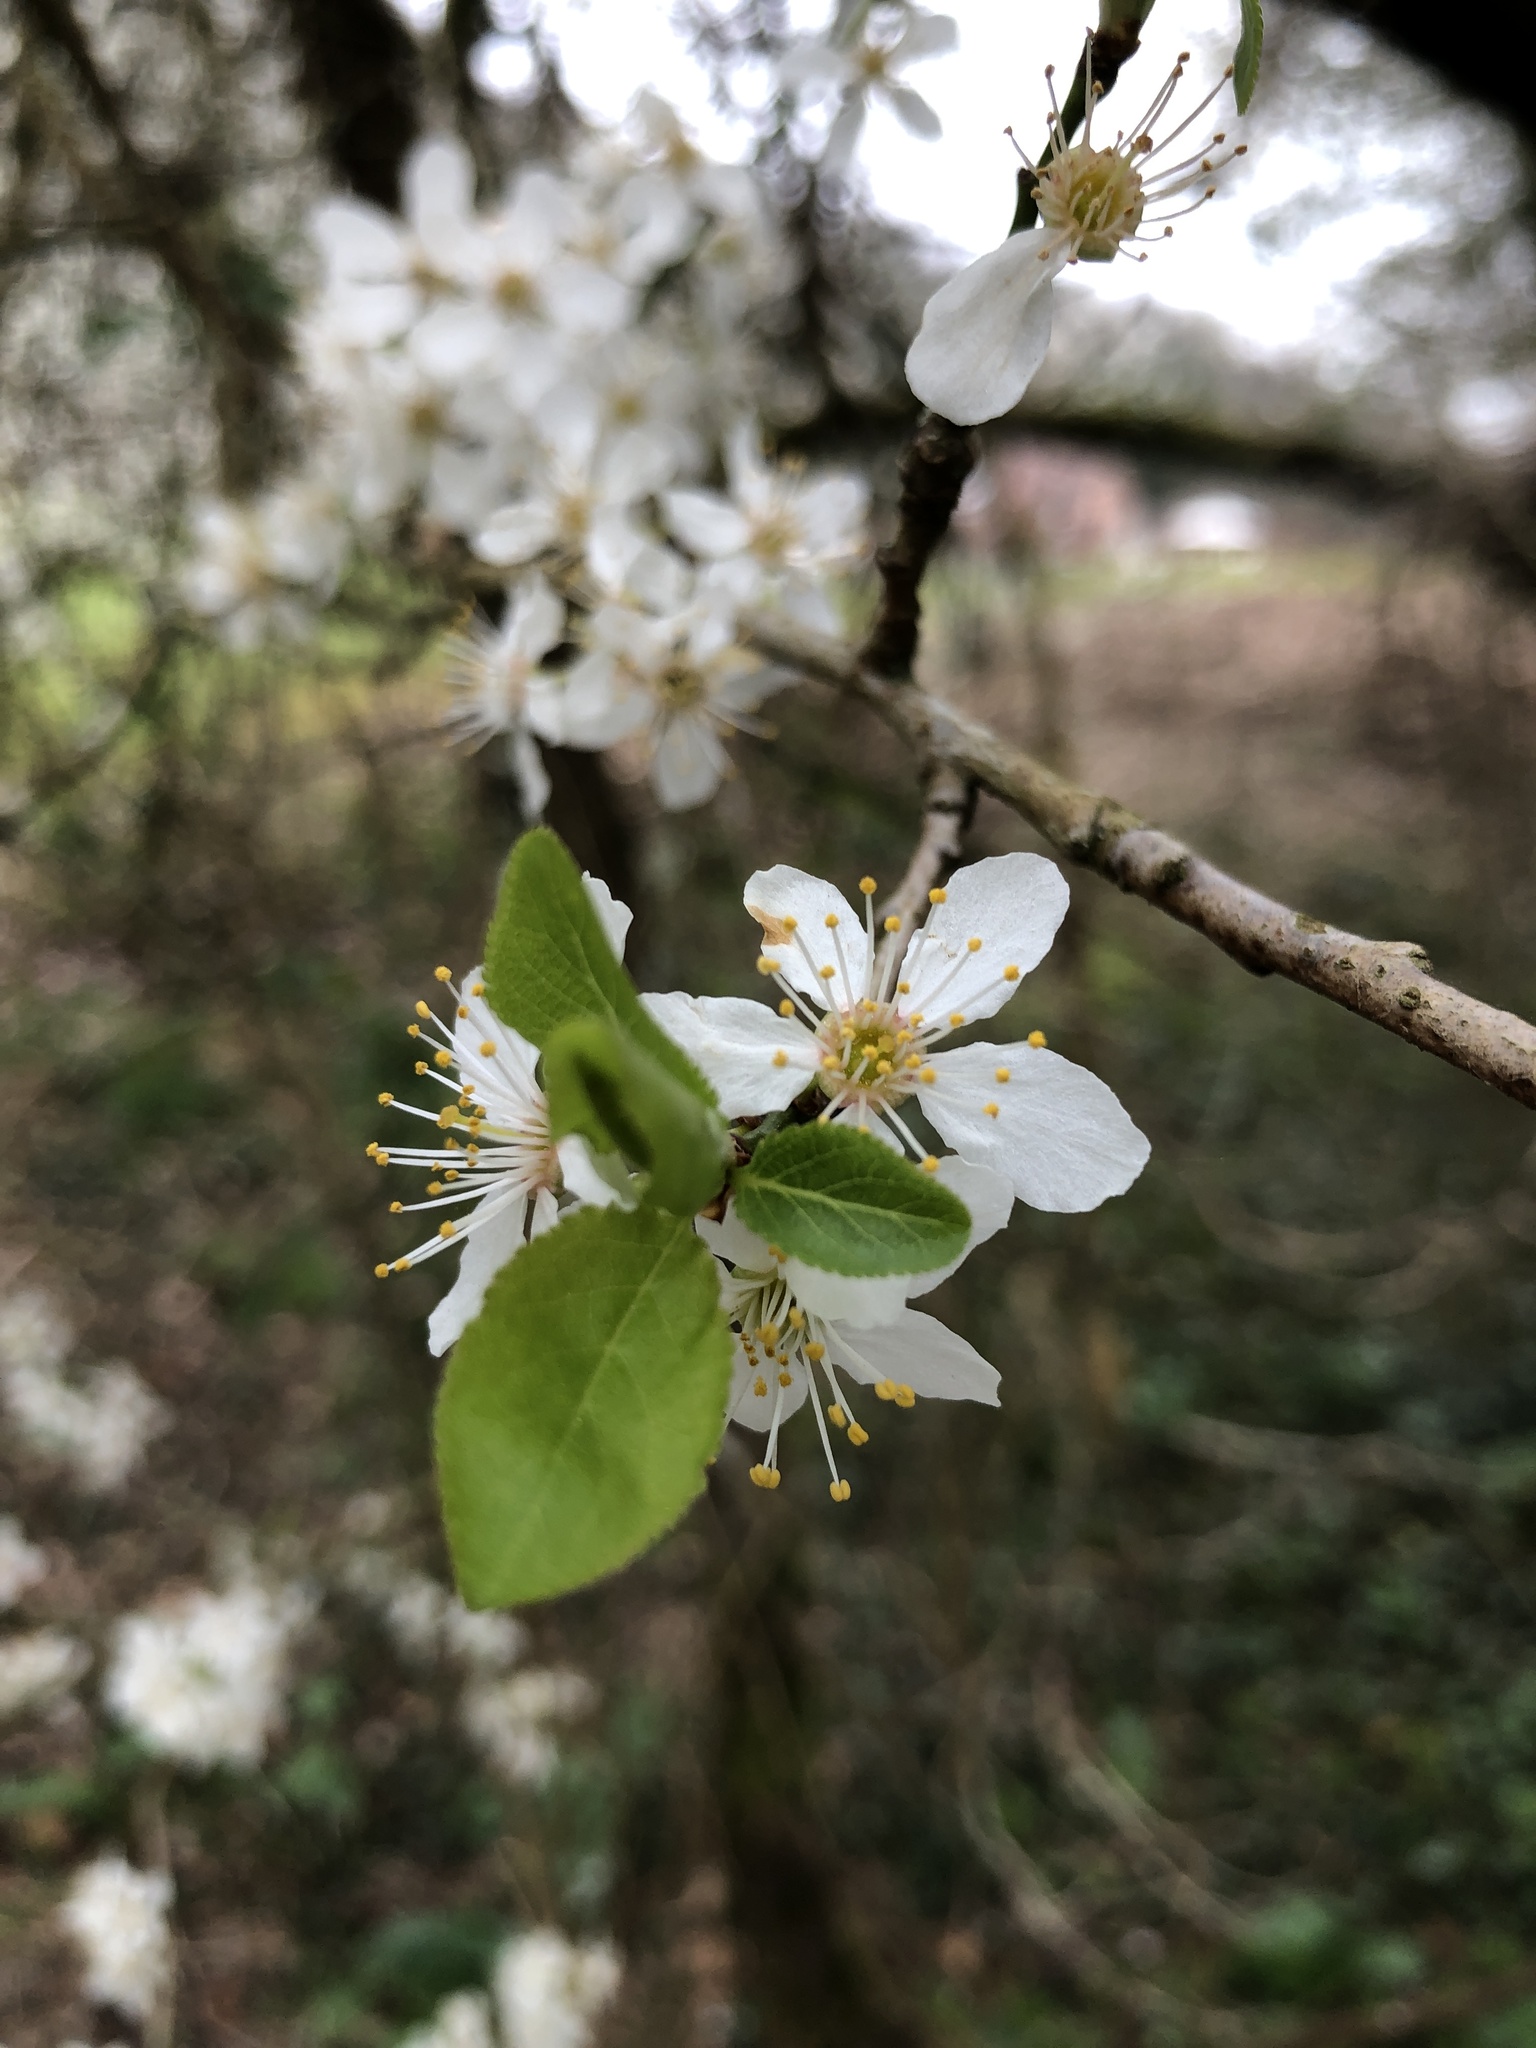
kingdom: Plantae
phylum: Tracheophyta
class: Magnoliopsida
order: Rosales
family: Rosaceae
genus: Prunus
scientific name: Prunus cerasifera
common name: Cherry plum
